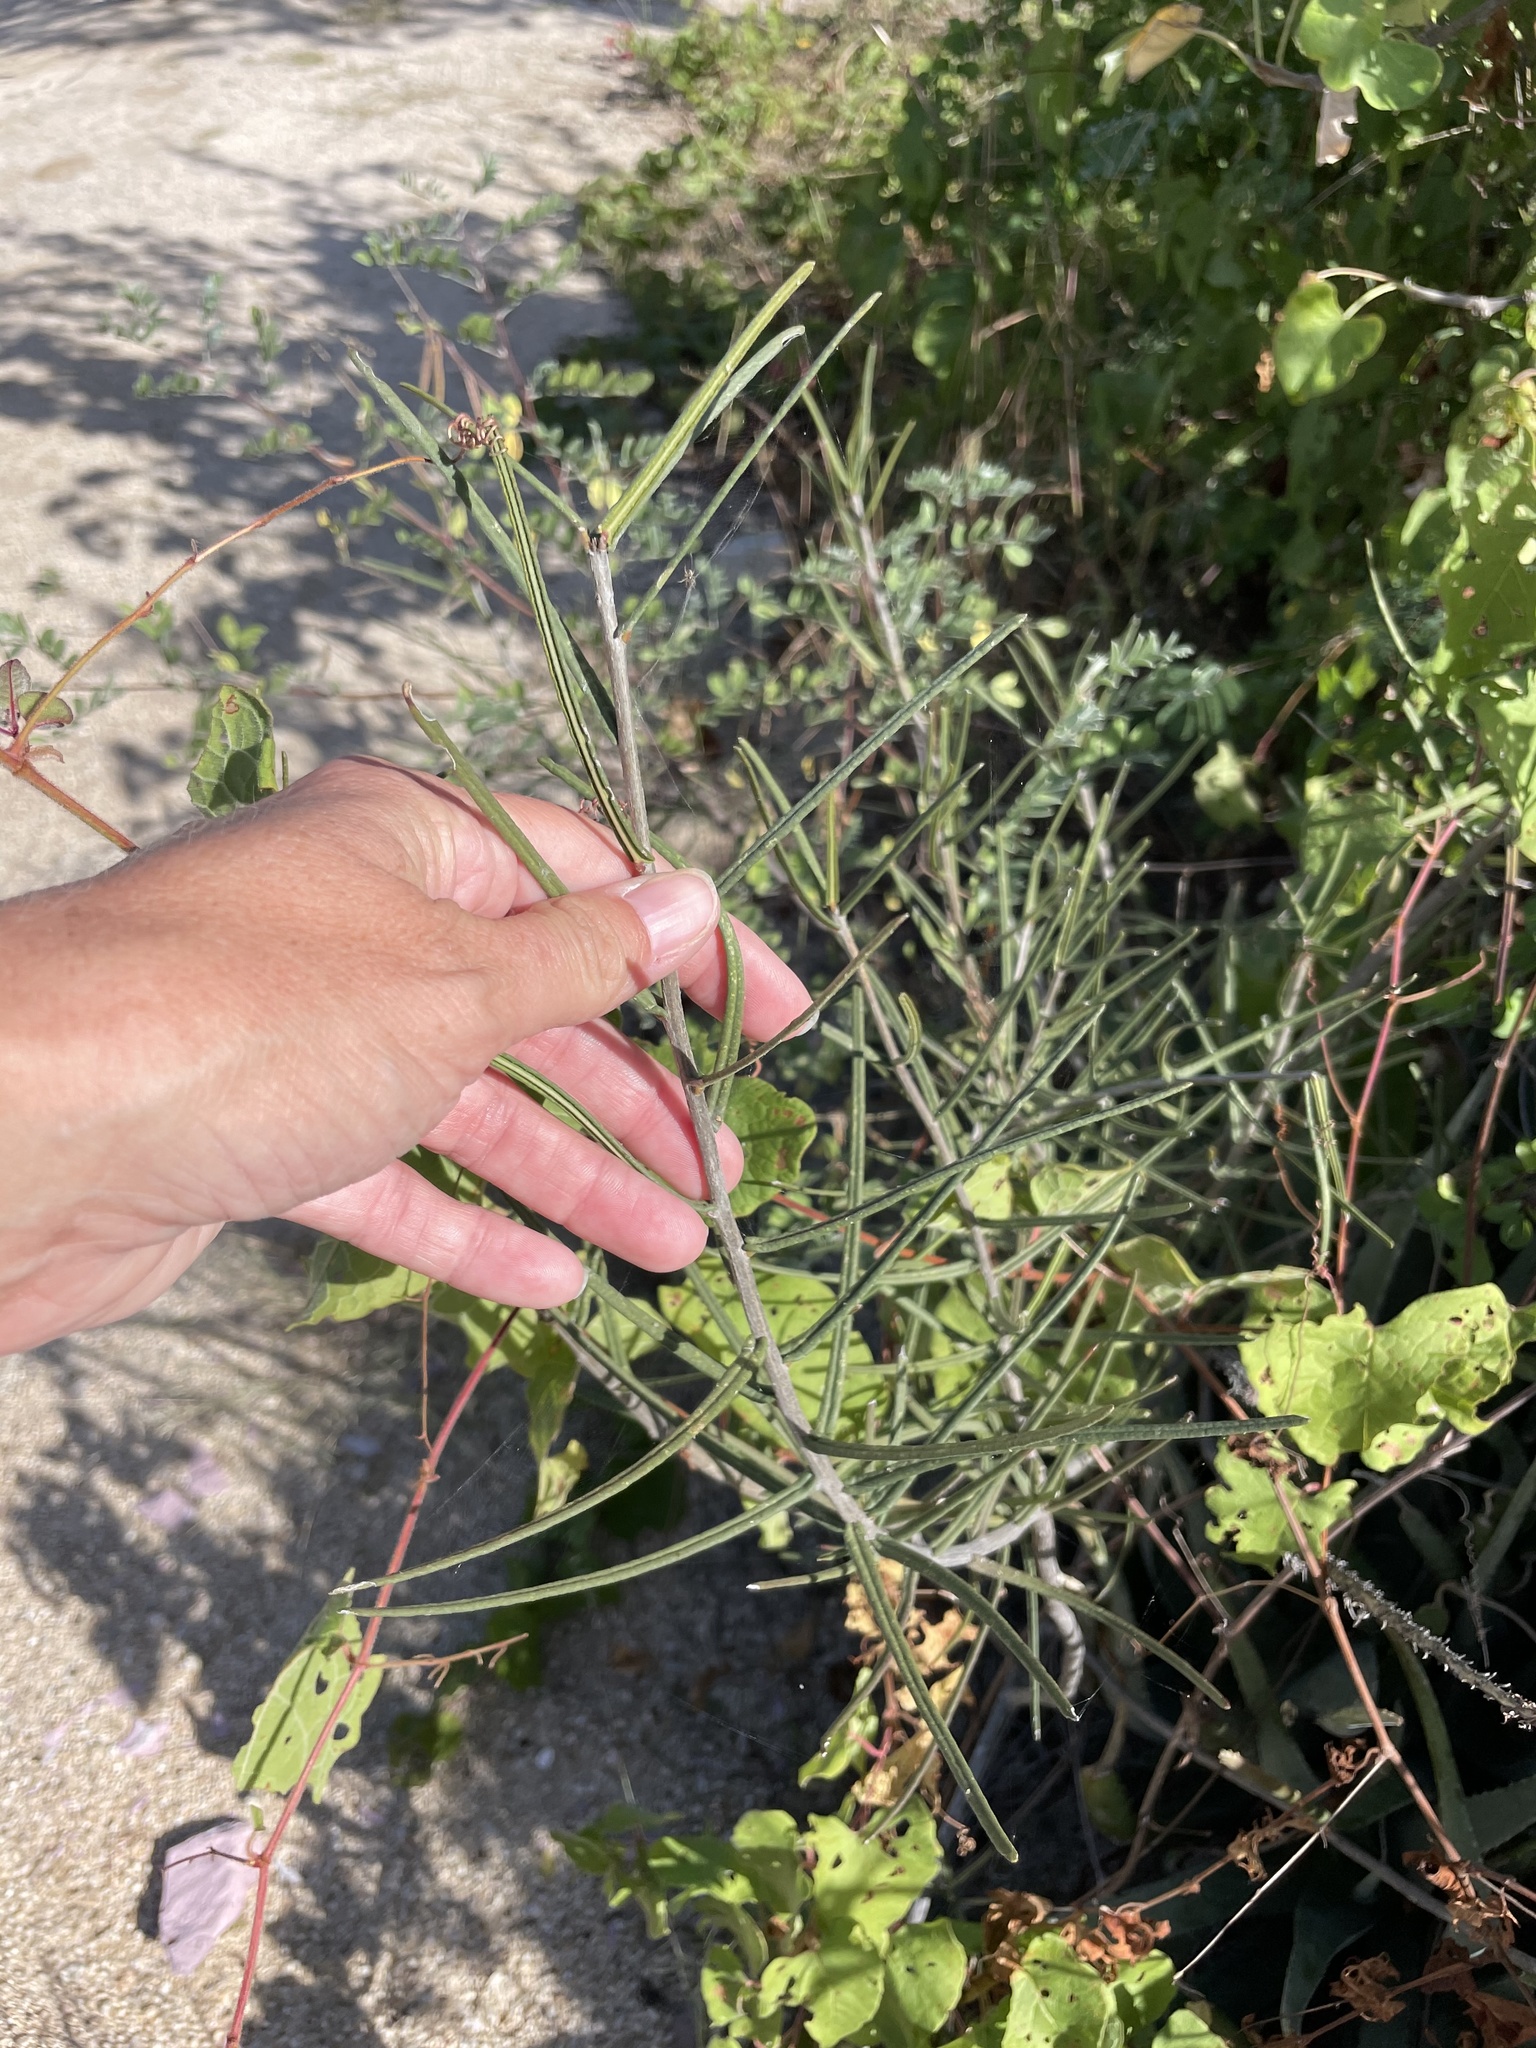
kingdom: Plantae
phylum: Tracheophyta
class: Magnoliopsida
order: Brassicales
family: Stixaceae
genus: Forchhammeria
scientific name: Forchhammeria watsonii
